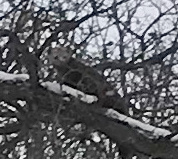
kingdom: Animalia
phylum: Chordata
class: Mammalia
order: Carnivora
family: Mustelidae
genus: Martes
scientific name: Martes americana
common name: American marten
